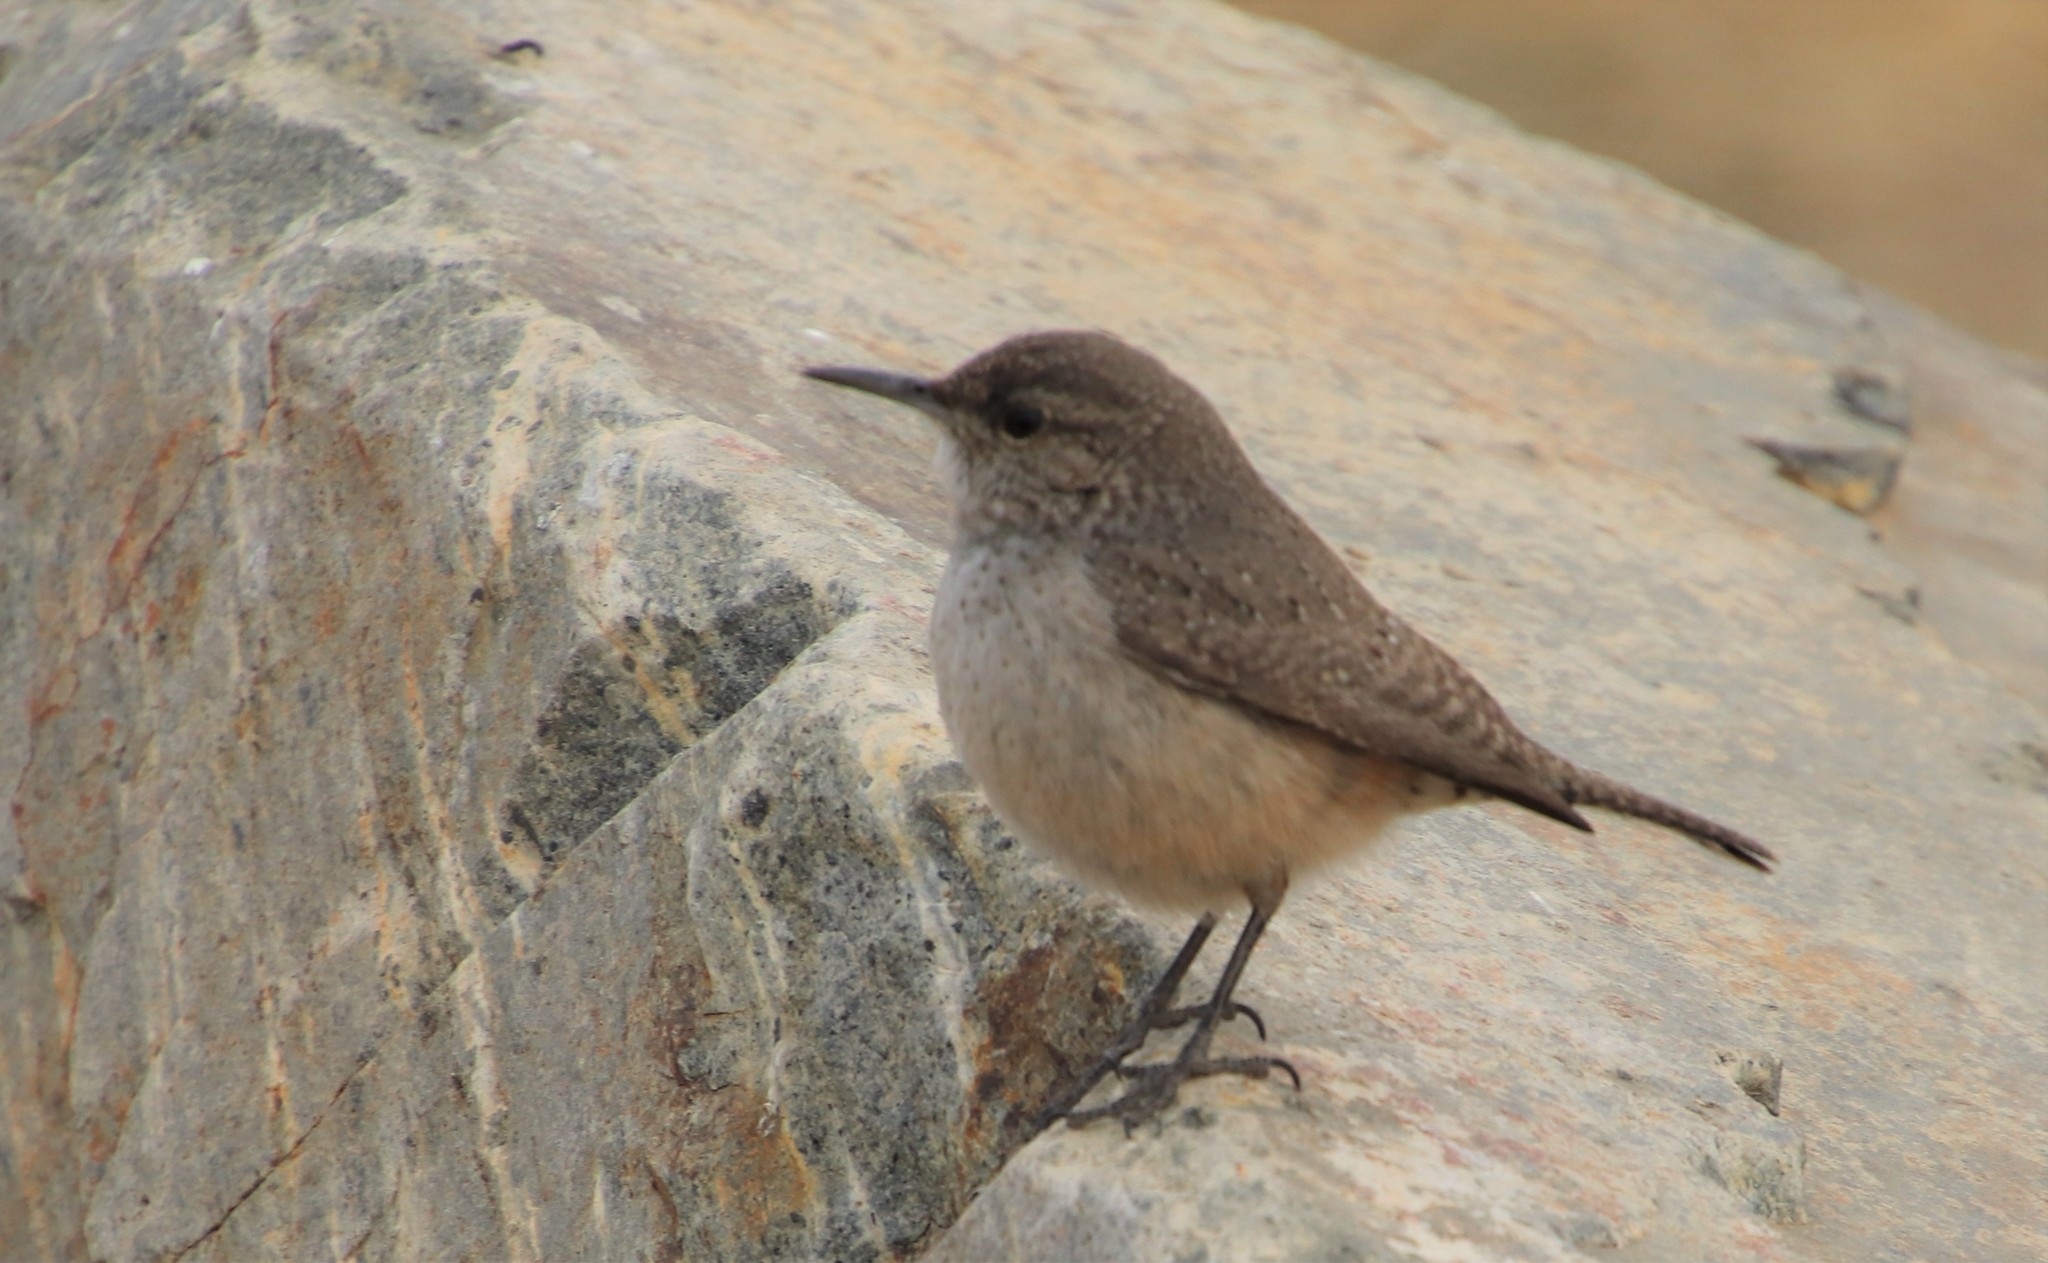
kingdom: Animalia
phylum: Chordata
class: Aves
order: Passeriformes
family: Troglodytidae
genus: Salpinctes
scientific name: Salpinctes obsoletus
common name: Rock wren
